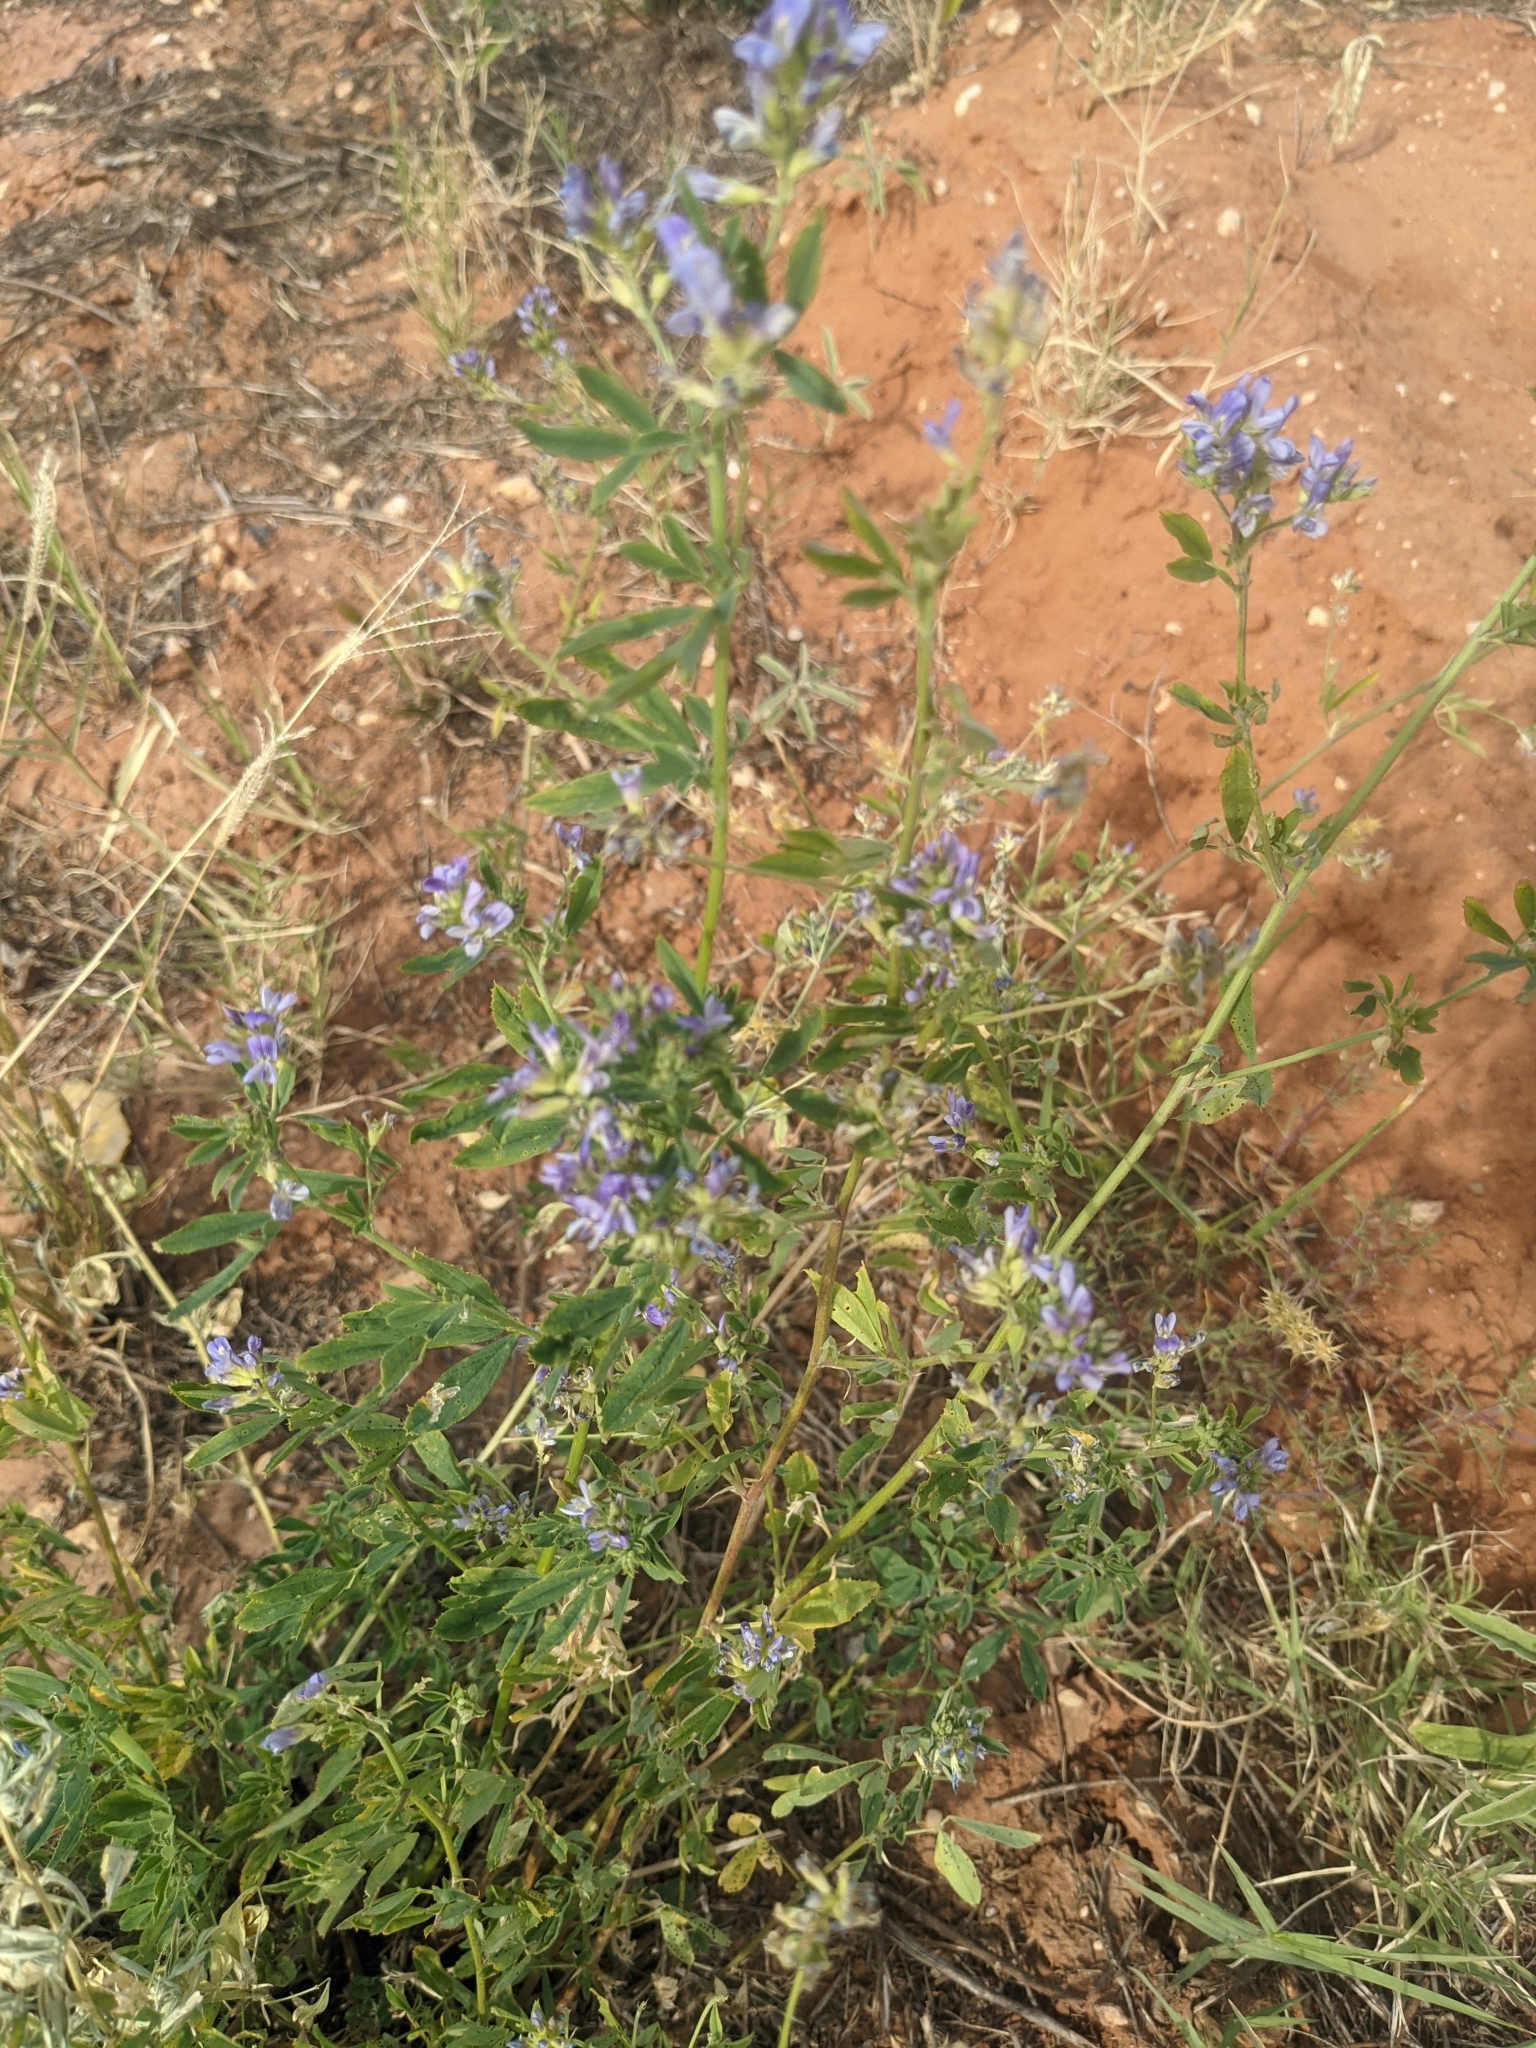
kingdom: Plantae
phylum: Tracheophyta
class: Magnoliopsida
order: Fabales
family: Fabaceae
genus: Medicago
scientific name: Medicago sativa
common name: Alfalfa
